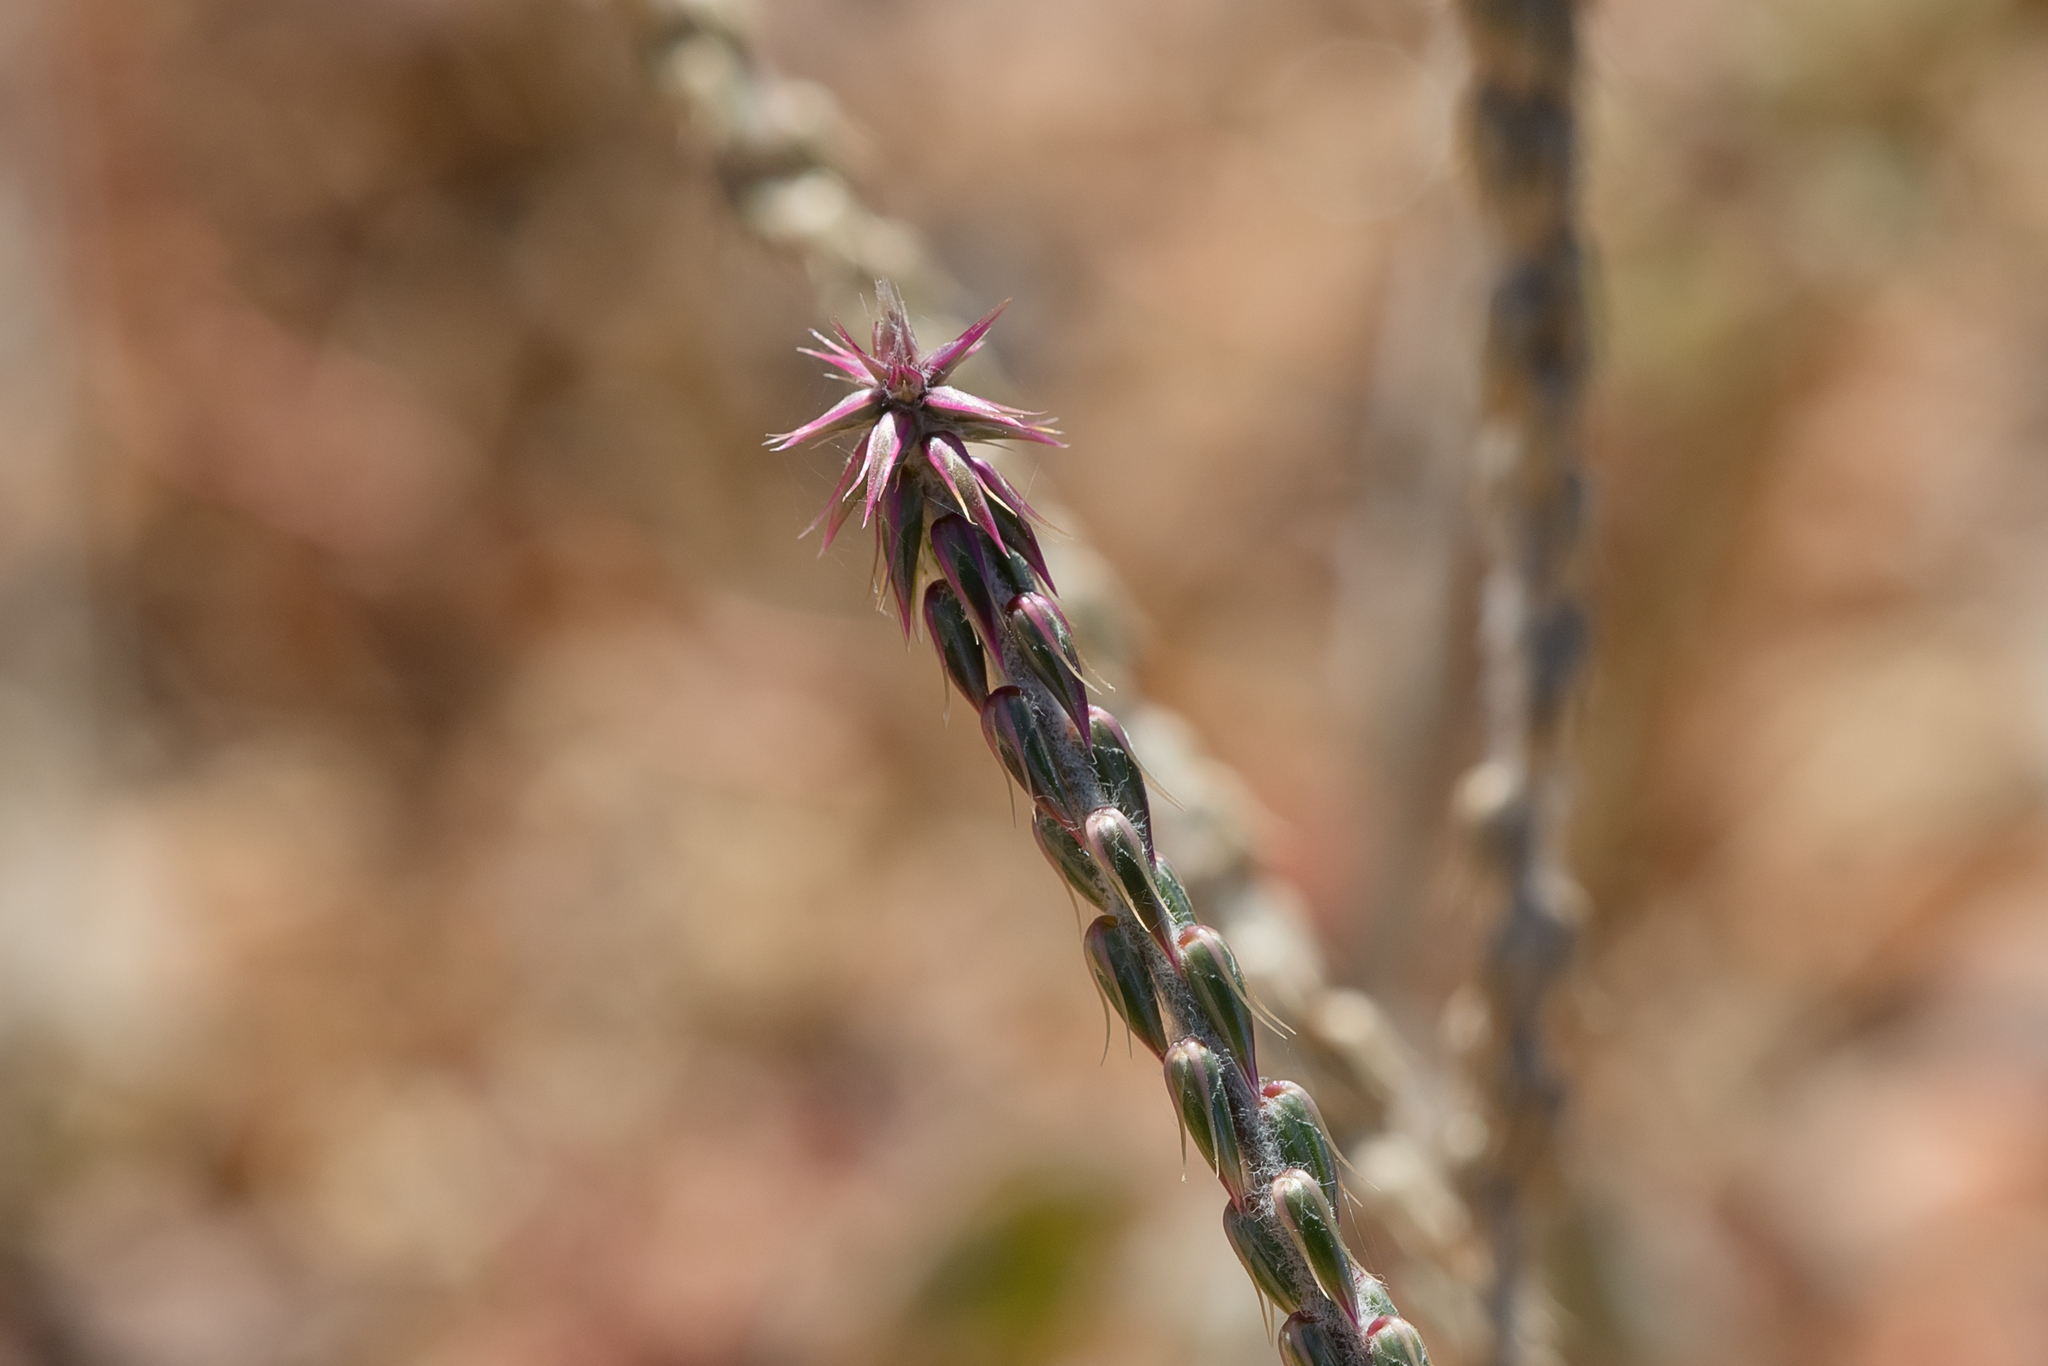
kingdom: Plantae
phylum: Tracheophyta
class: Magnoliopsida
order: Caryophyllales
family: Amaranthaceae
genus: Achyranthes
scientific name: Achyranthes aspera
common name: Devil's horsewhip
